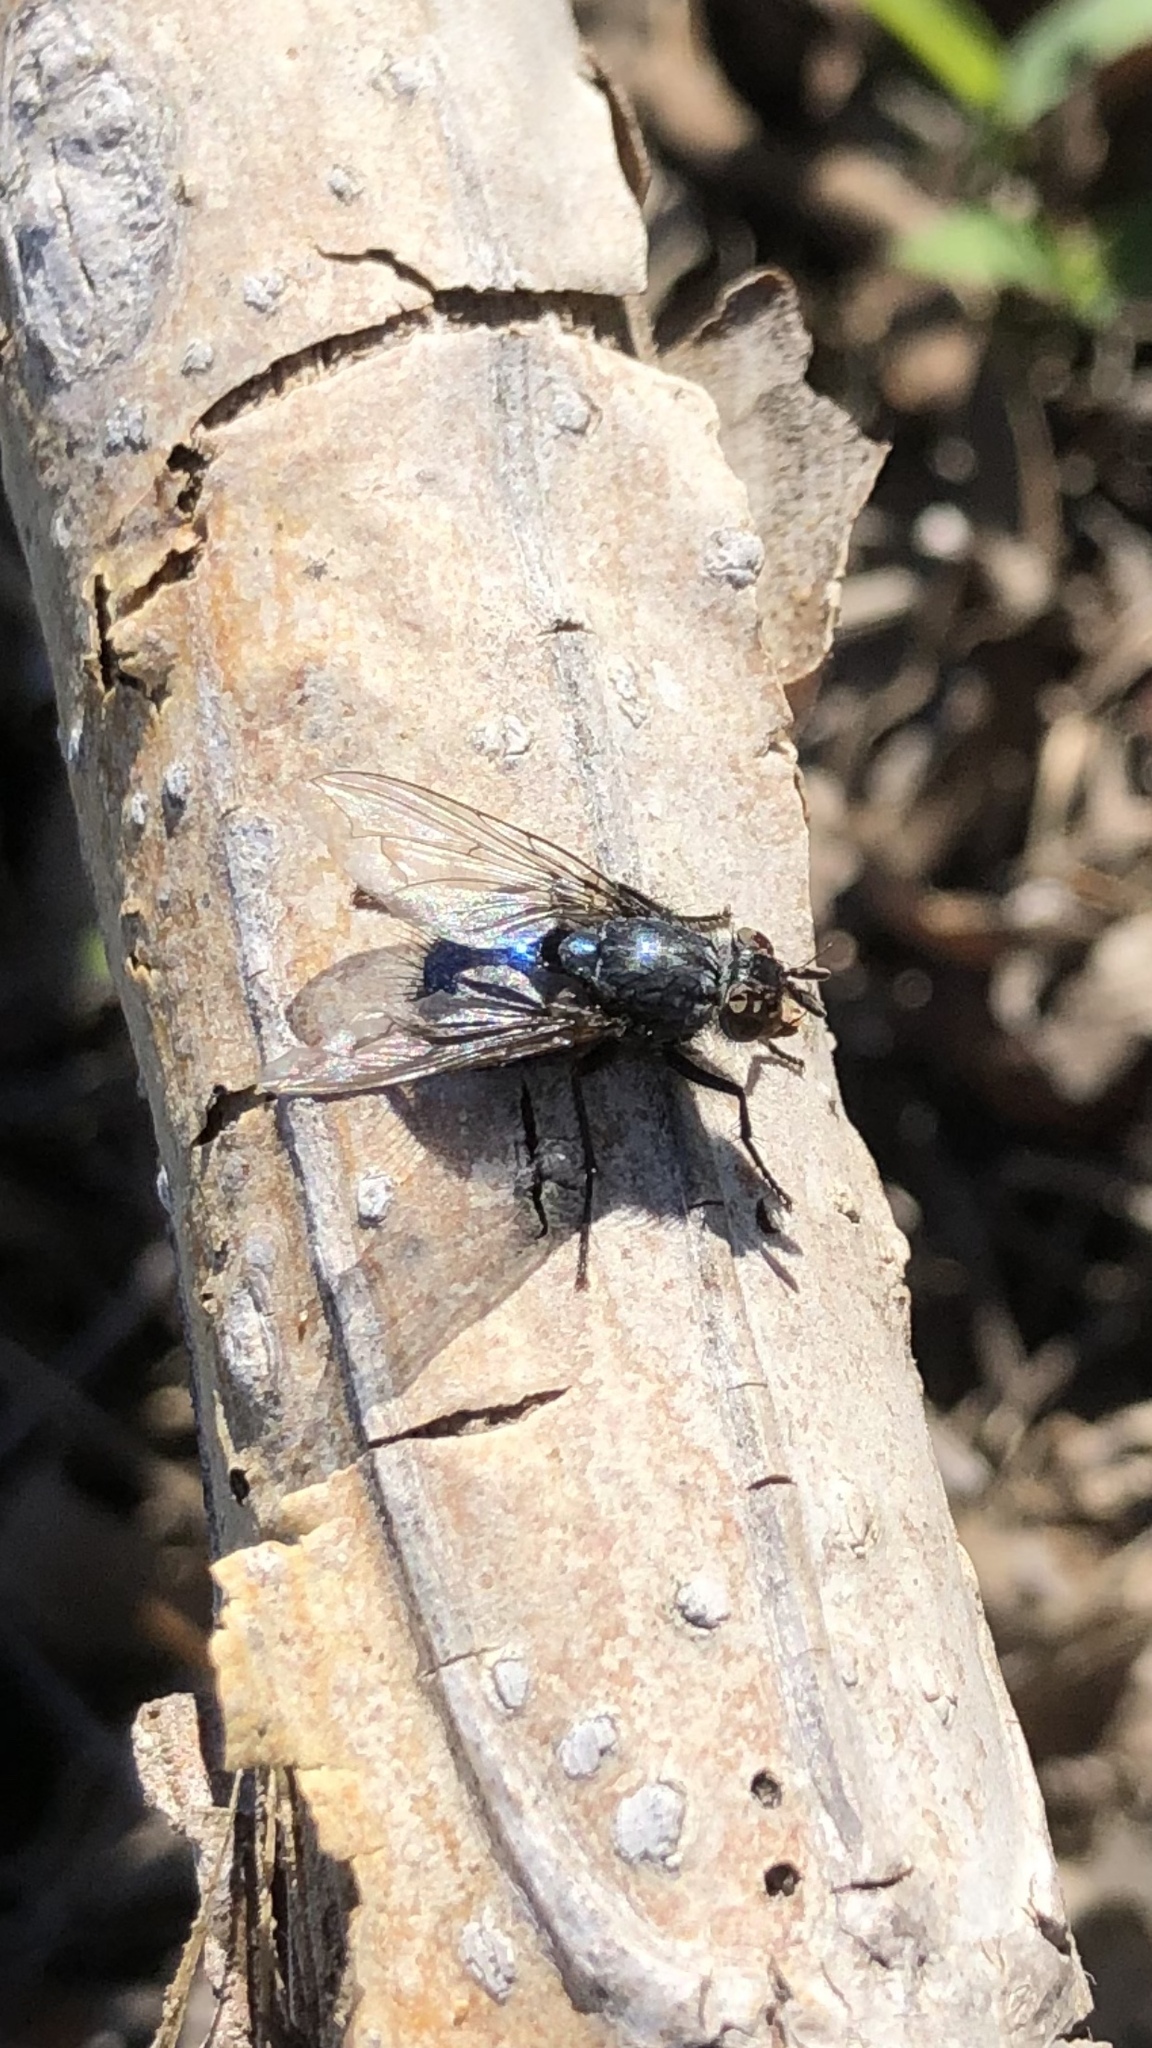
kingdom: Animalia
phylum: Arthropoda
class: Insecta
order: Diptera
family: Calliphoridae
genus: Cynomya
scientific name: Cynomya cadaverina
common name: Shiny blue bottle fly
